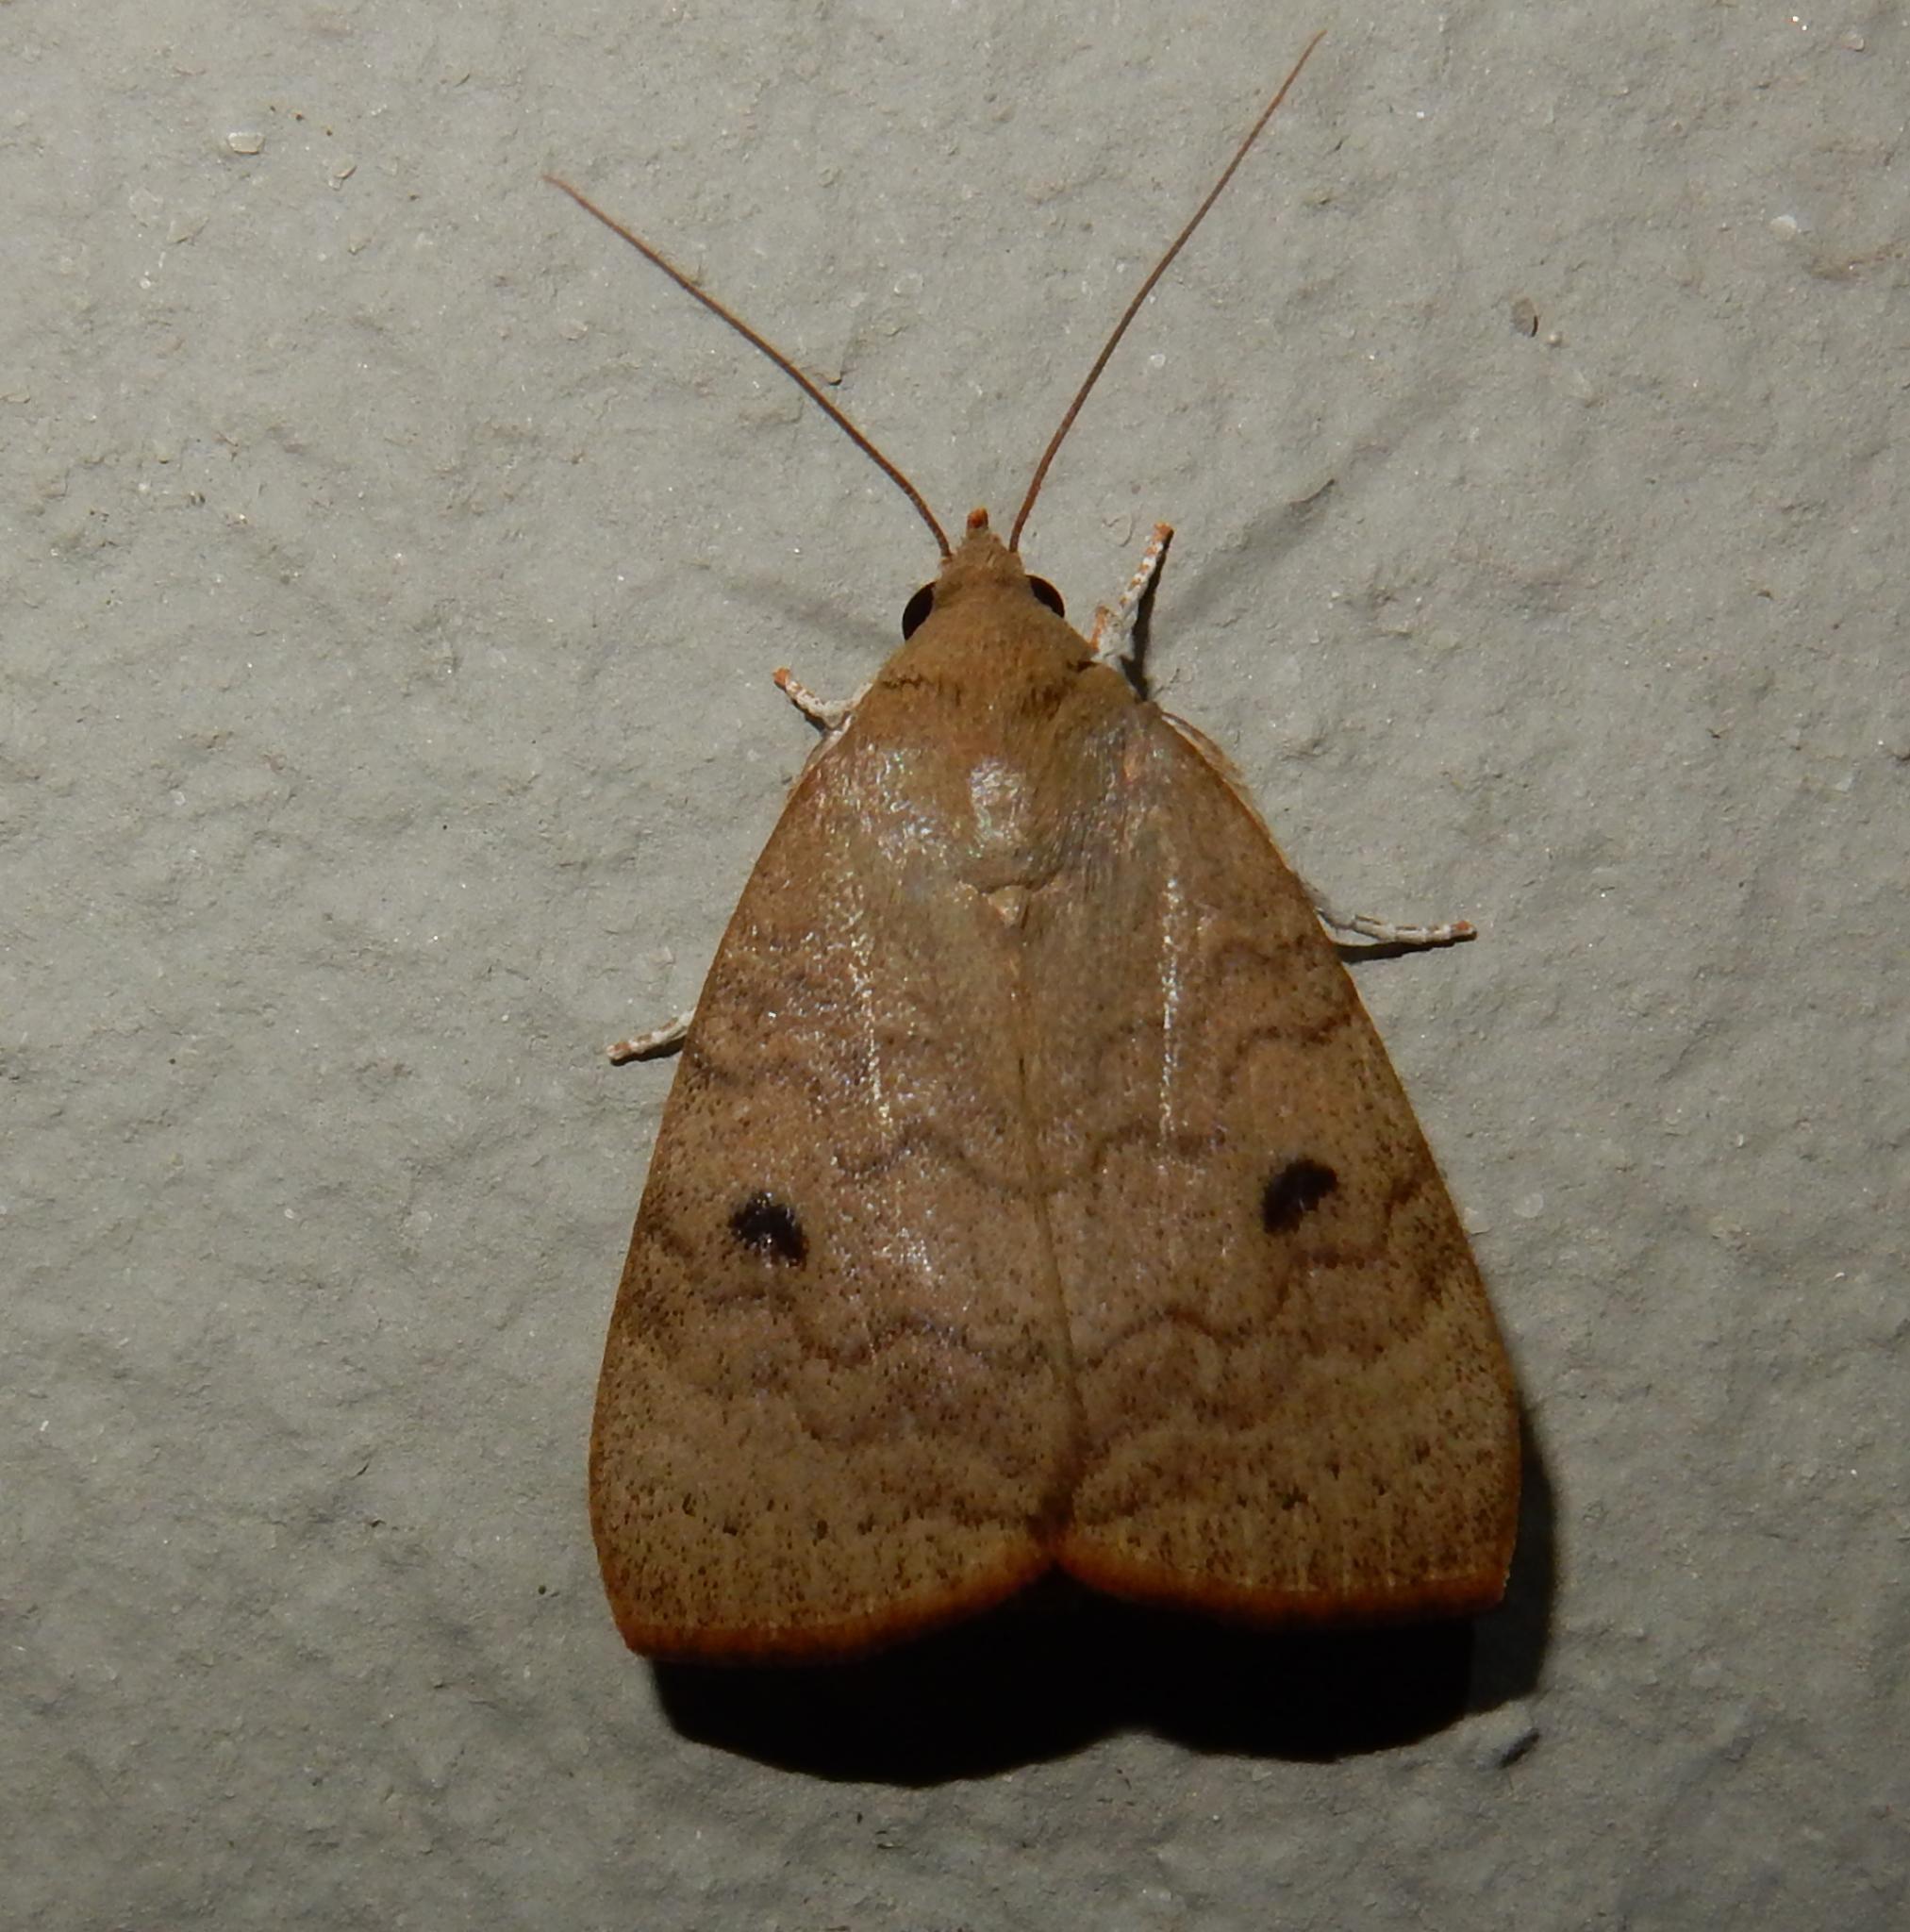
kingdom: Animalia
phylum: Arthropoda
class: Insecta
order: Lepidoptera
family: Nolidae
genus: Maurilia
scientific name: Maurilia arcuata
